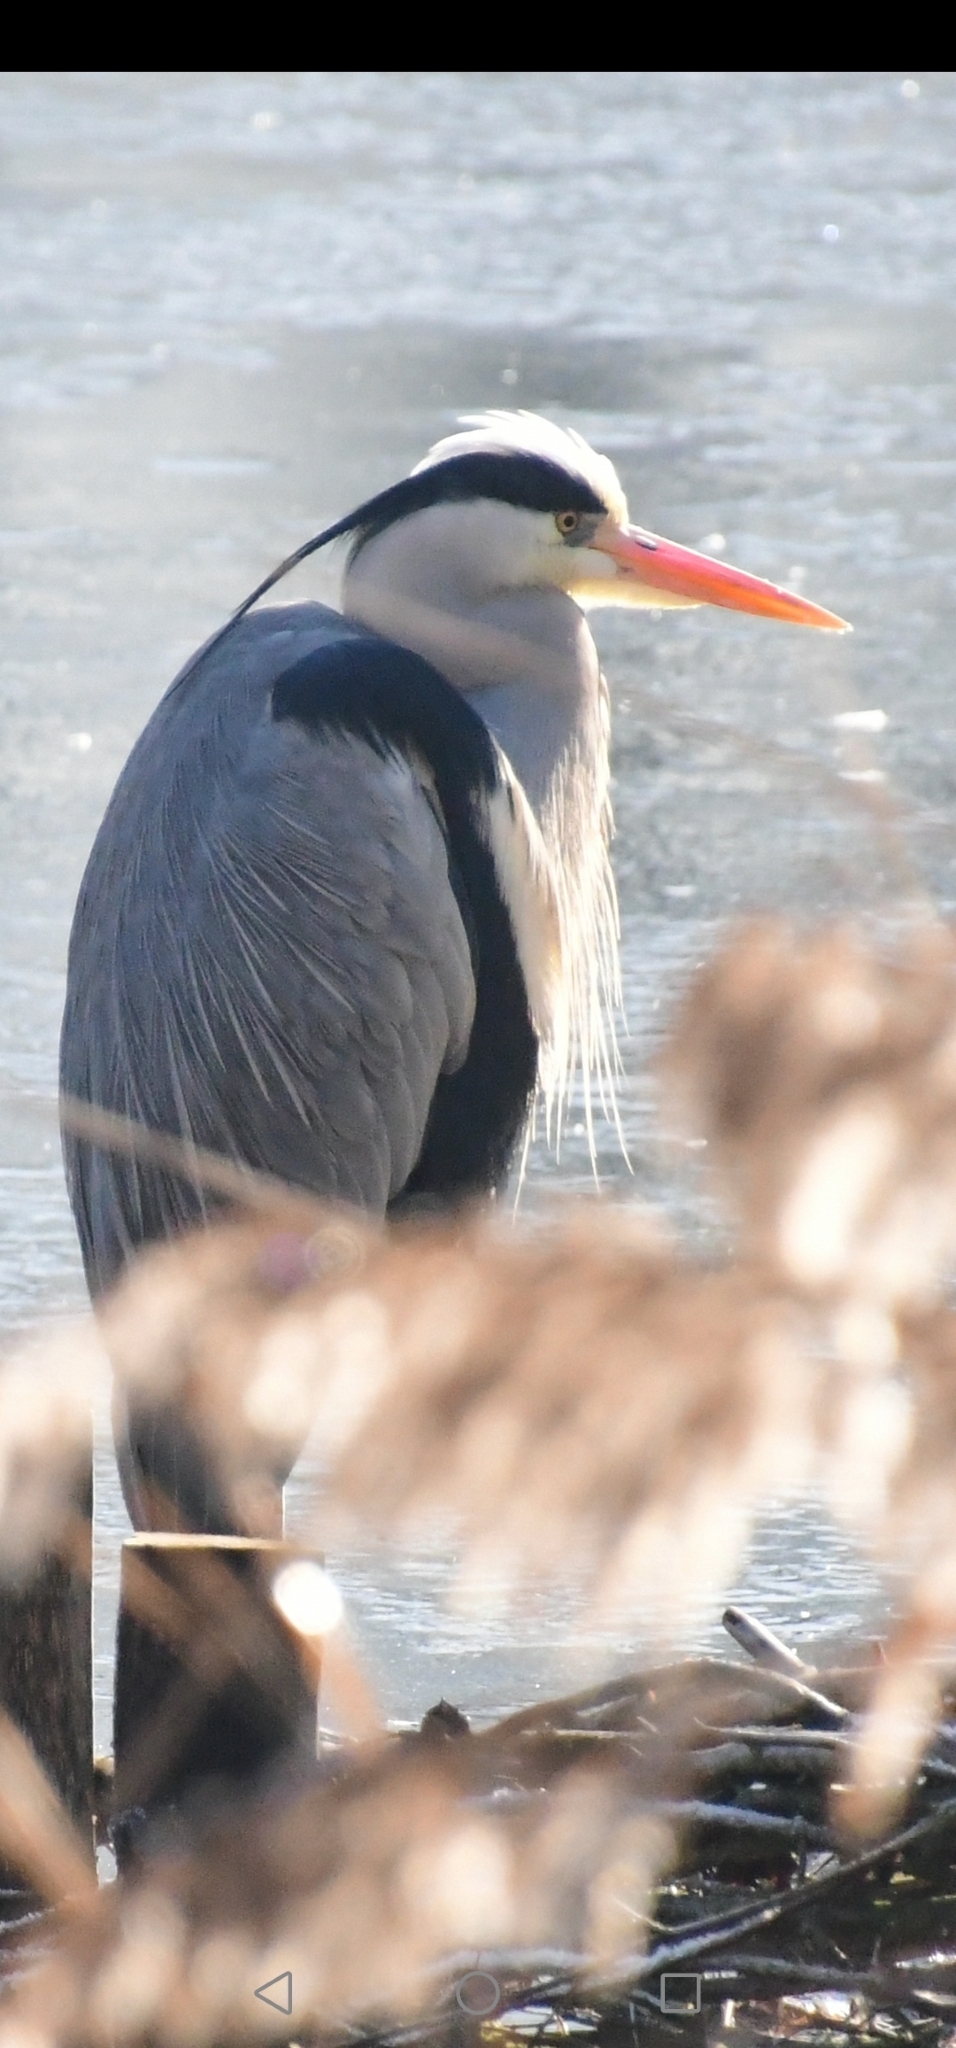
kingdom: Animalia
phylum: Chordata
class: Aves
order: Pelecaniformes
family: Ardeidae
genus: Ardea
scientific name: Ardea cinerea
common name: Grey heron
